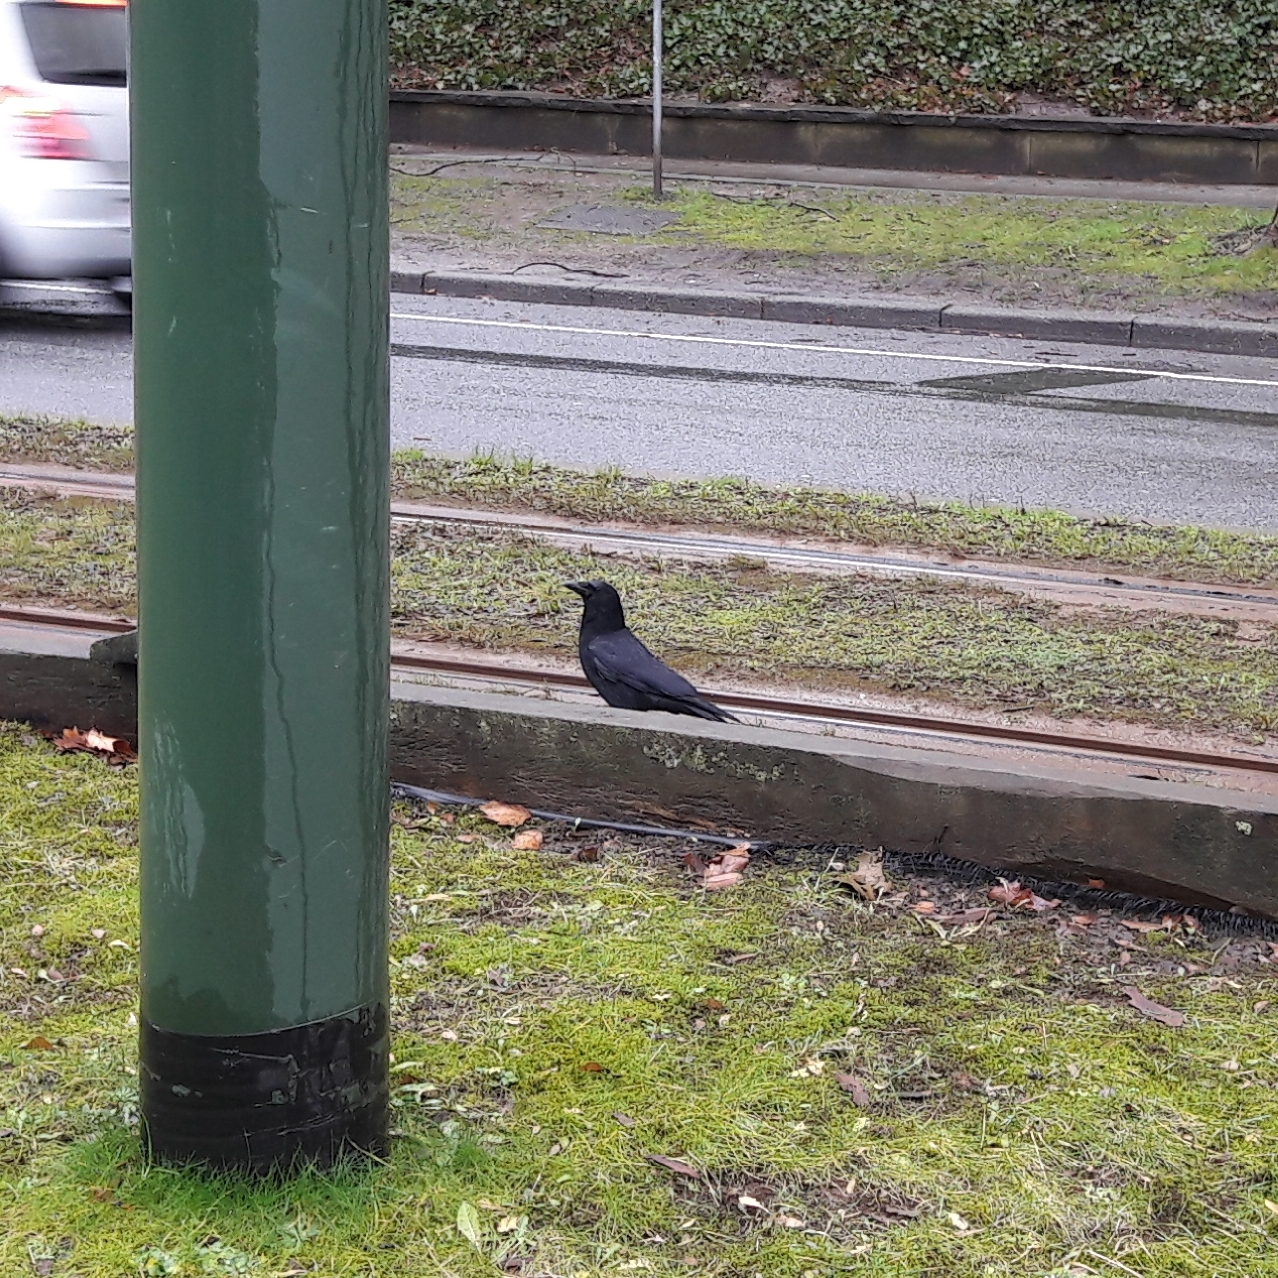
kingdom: Animalia
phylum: Chordata
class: Aves
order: Passeriformes
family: Corvidae
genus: Corvus
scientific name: Corvus corone
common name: Carrion crow
